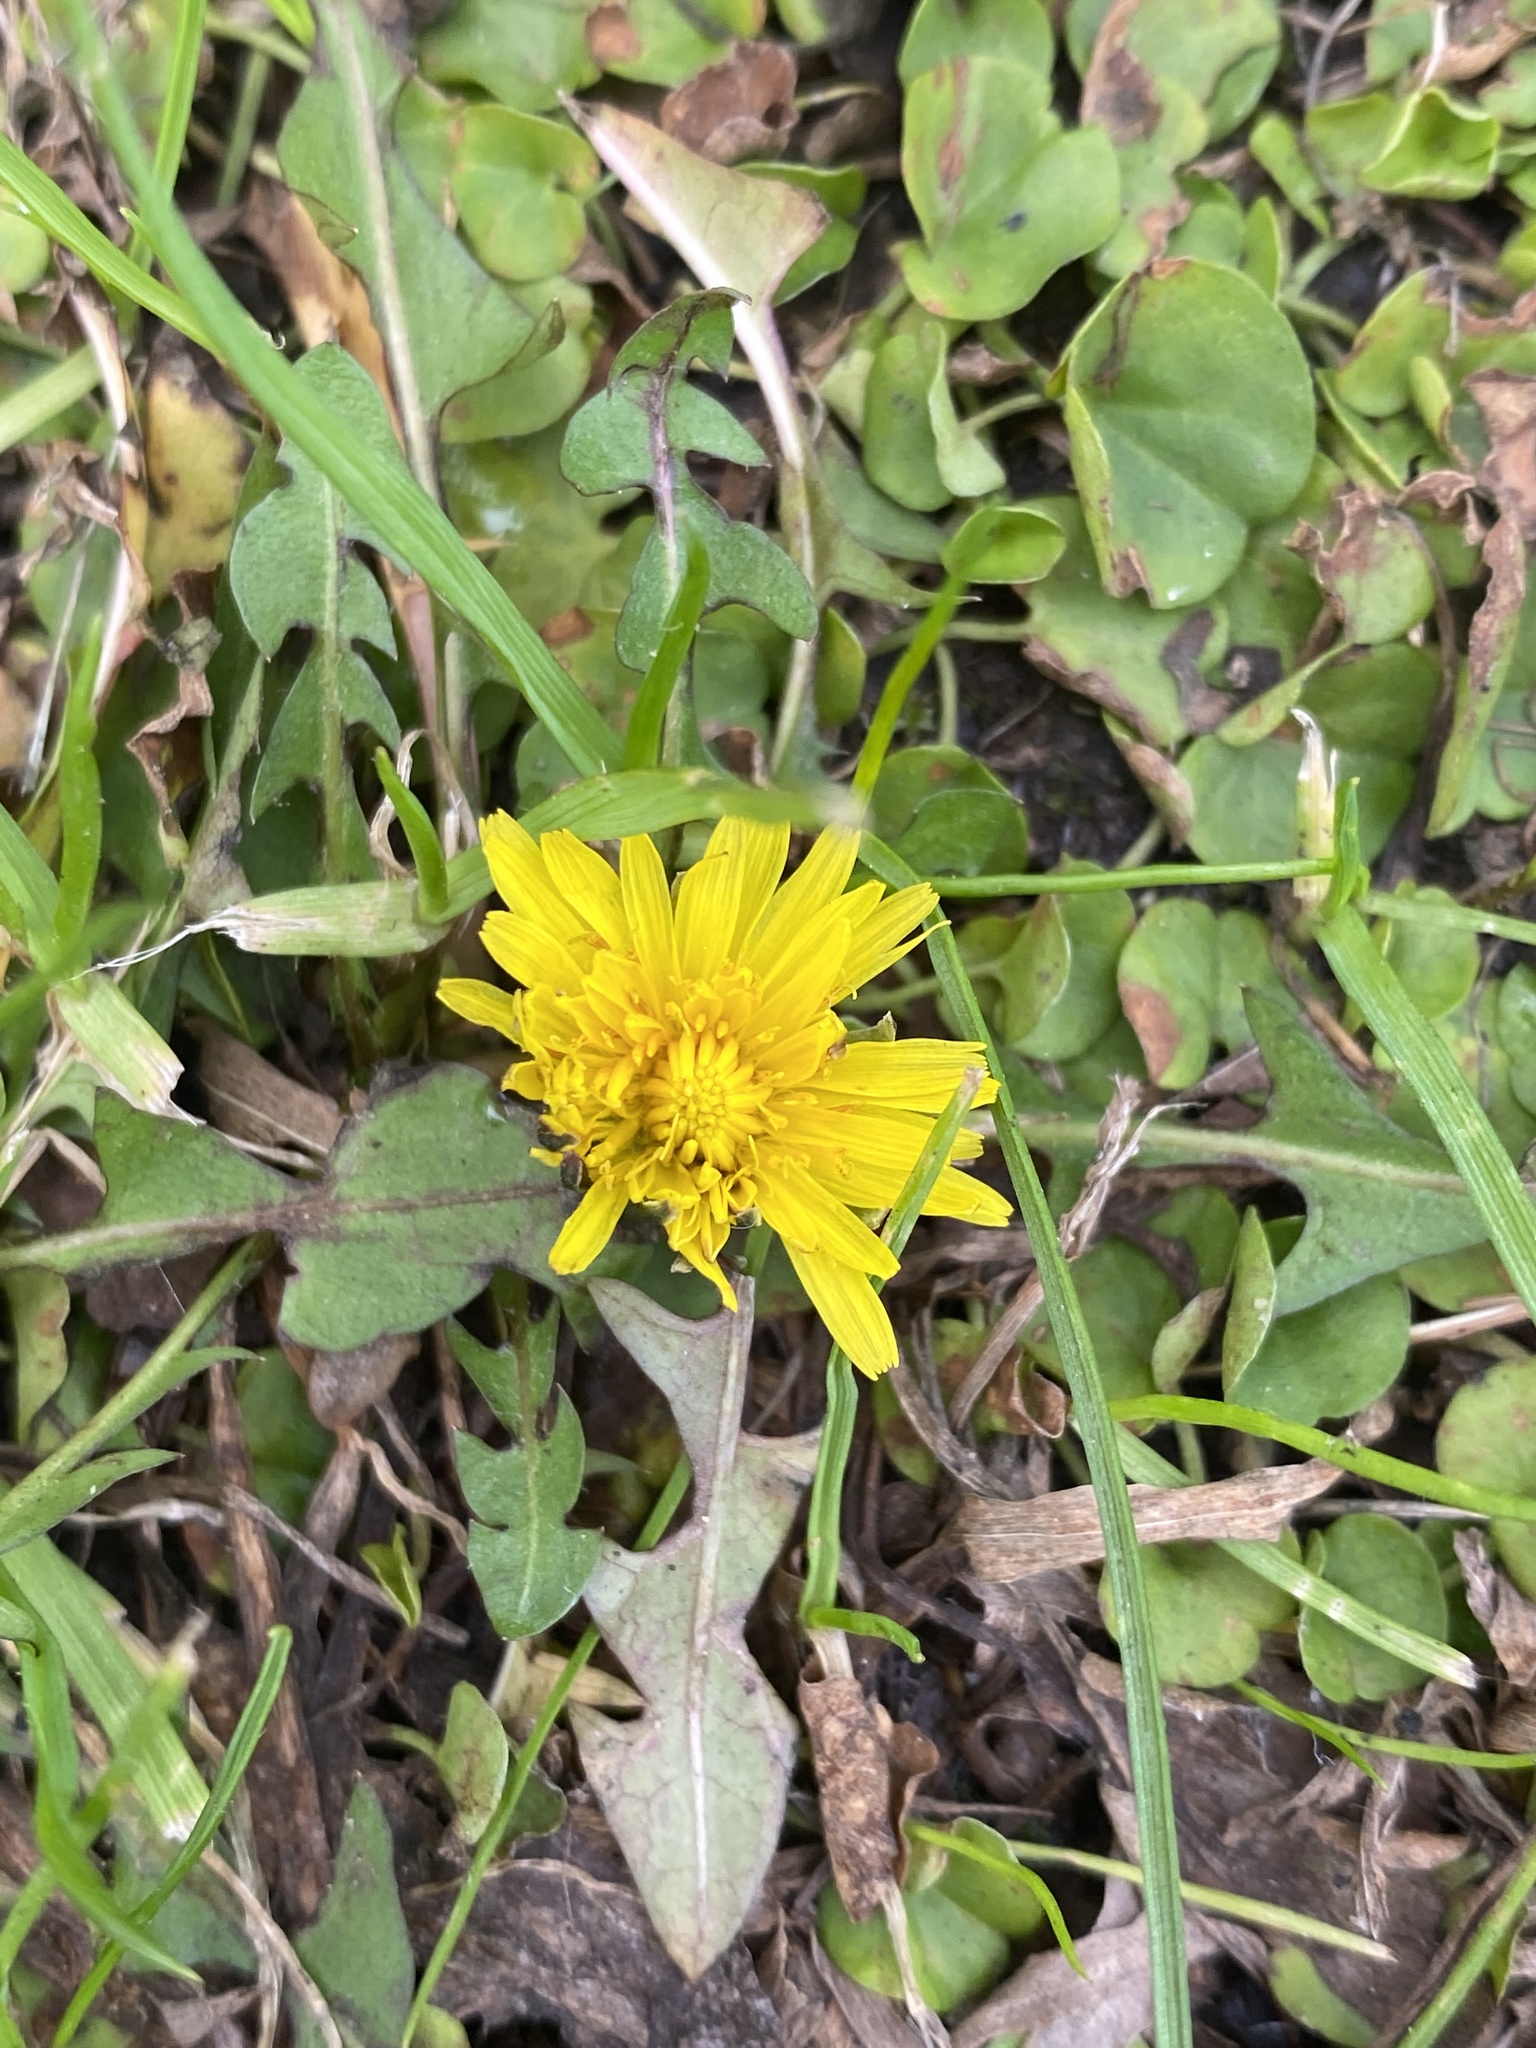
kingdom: Plantae
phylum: Tracheophyta
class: Magnoliopsida
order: Asterales
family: Asteraceae
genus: Taraxacum
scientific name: Taraxacum officinale
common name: Common dandelion
